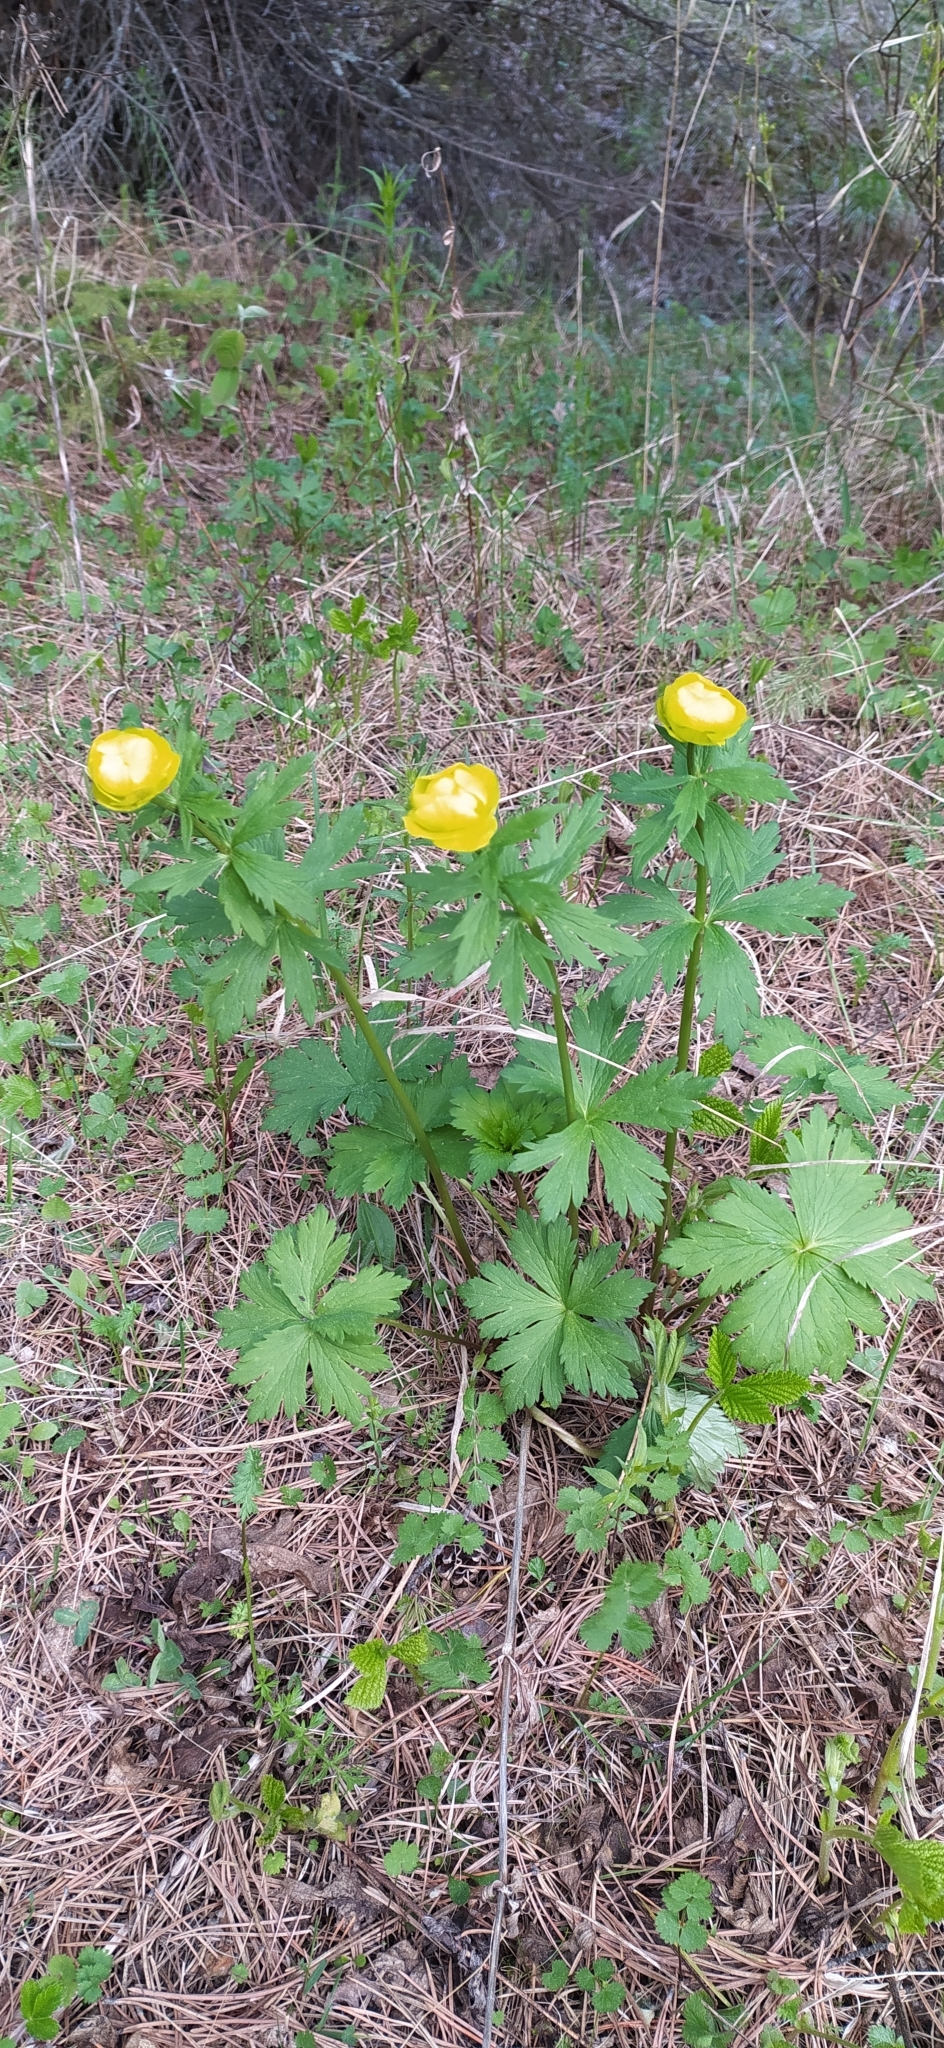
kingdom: Plantae
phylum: Tracheophyta
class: Magnoliopsida
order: Ranunculales
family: Ranunculaceae
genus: Trollius
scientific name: Trollius europaeus
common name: European globeflower
